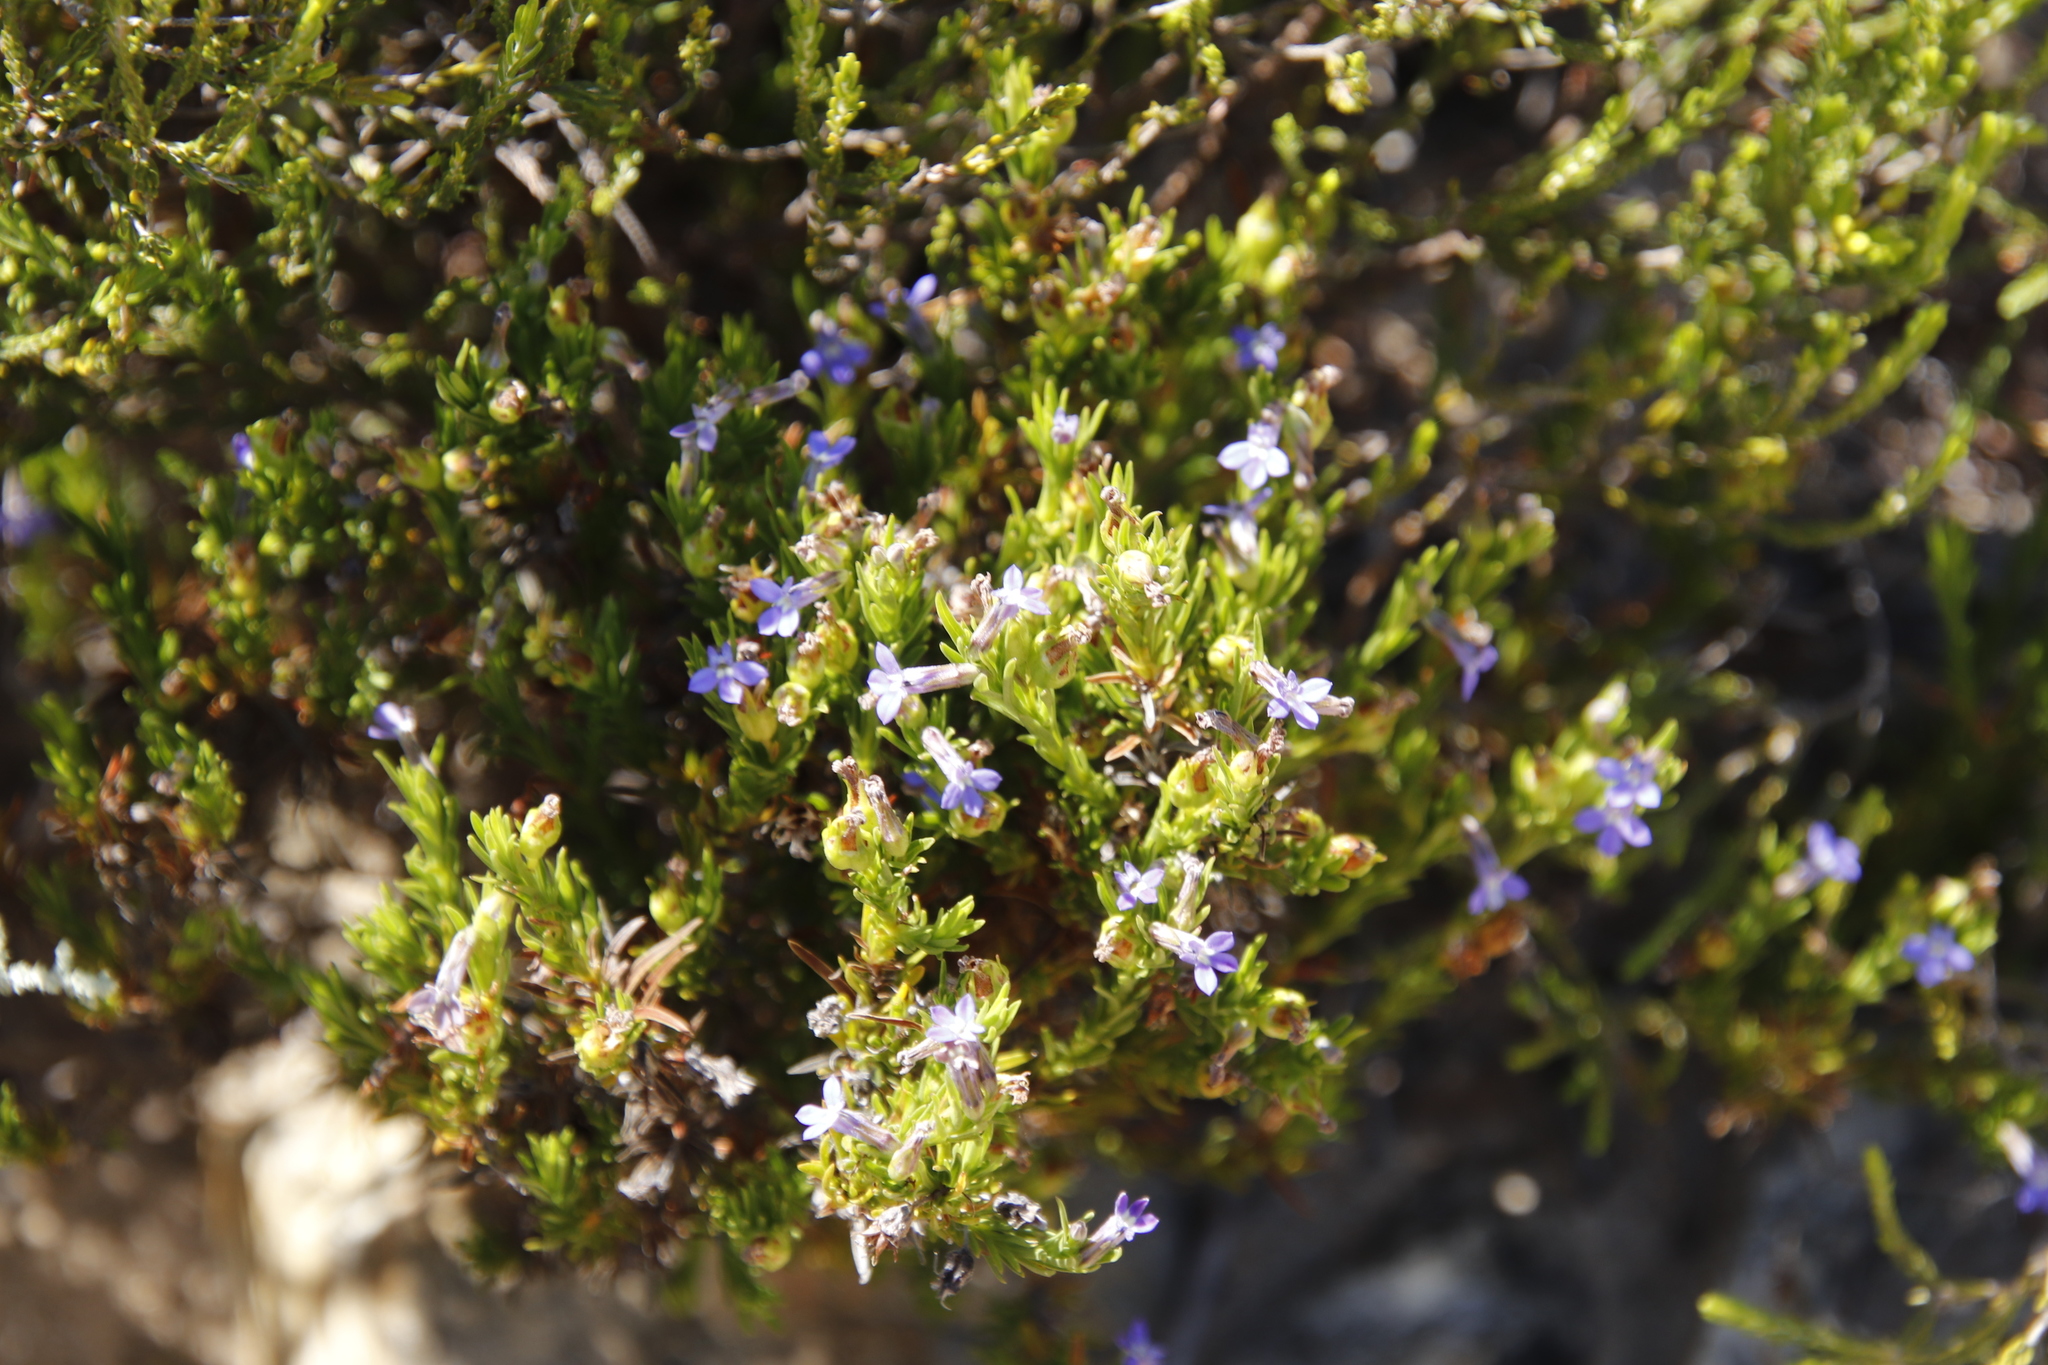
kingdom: Plantae
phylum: Tracheophyta
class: Magnoliopsida
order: Asterales
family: Campanulaceae
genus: Lobelia
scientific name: Lobelia pinifolia
